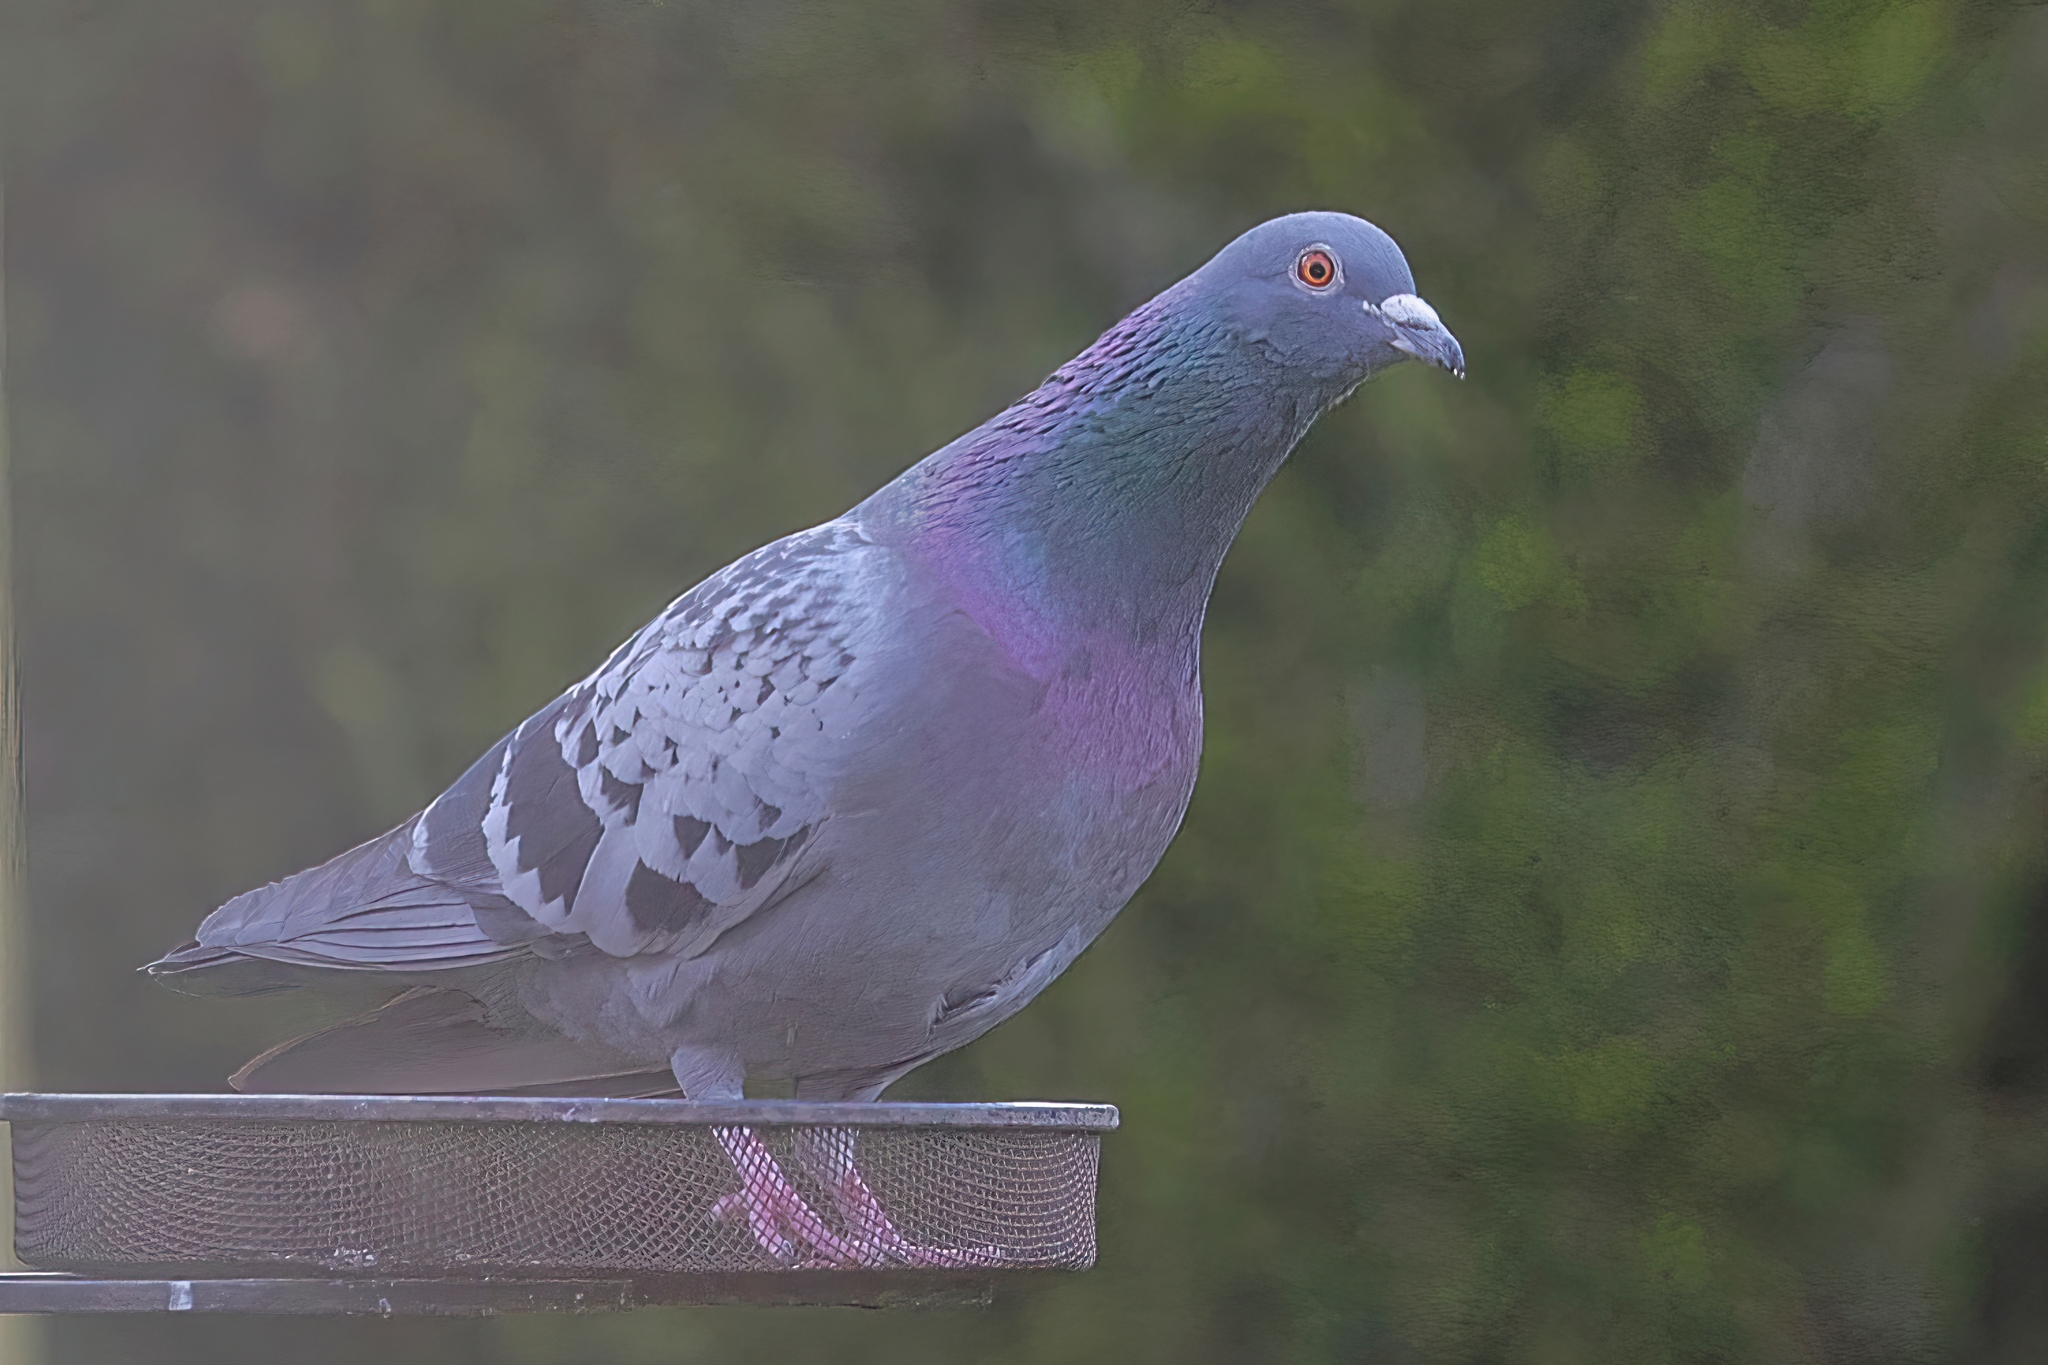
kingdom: Animalia
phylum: Chordata
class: Aves
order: Columbiformes
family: Columbidae
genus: Columba
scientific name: Columba livia
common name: Rock pigeon
